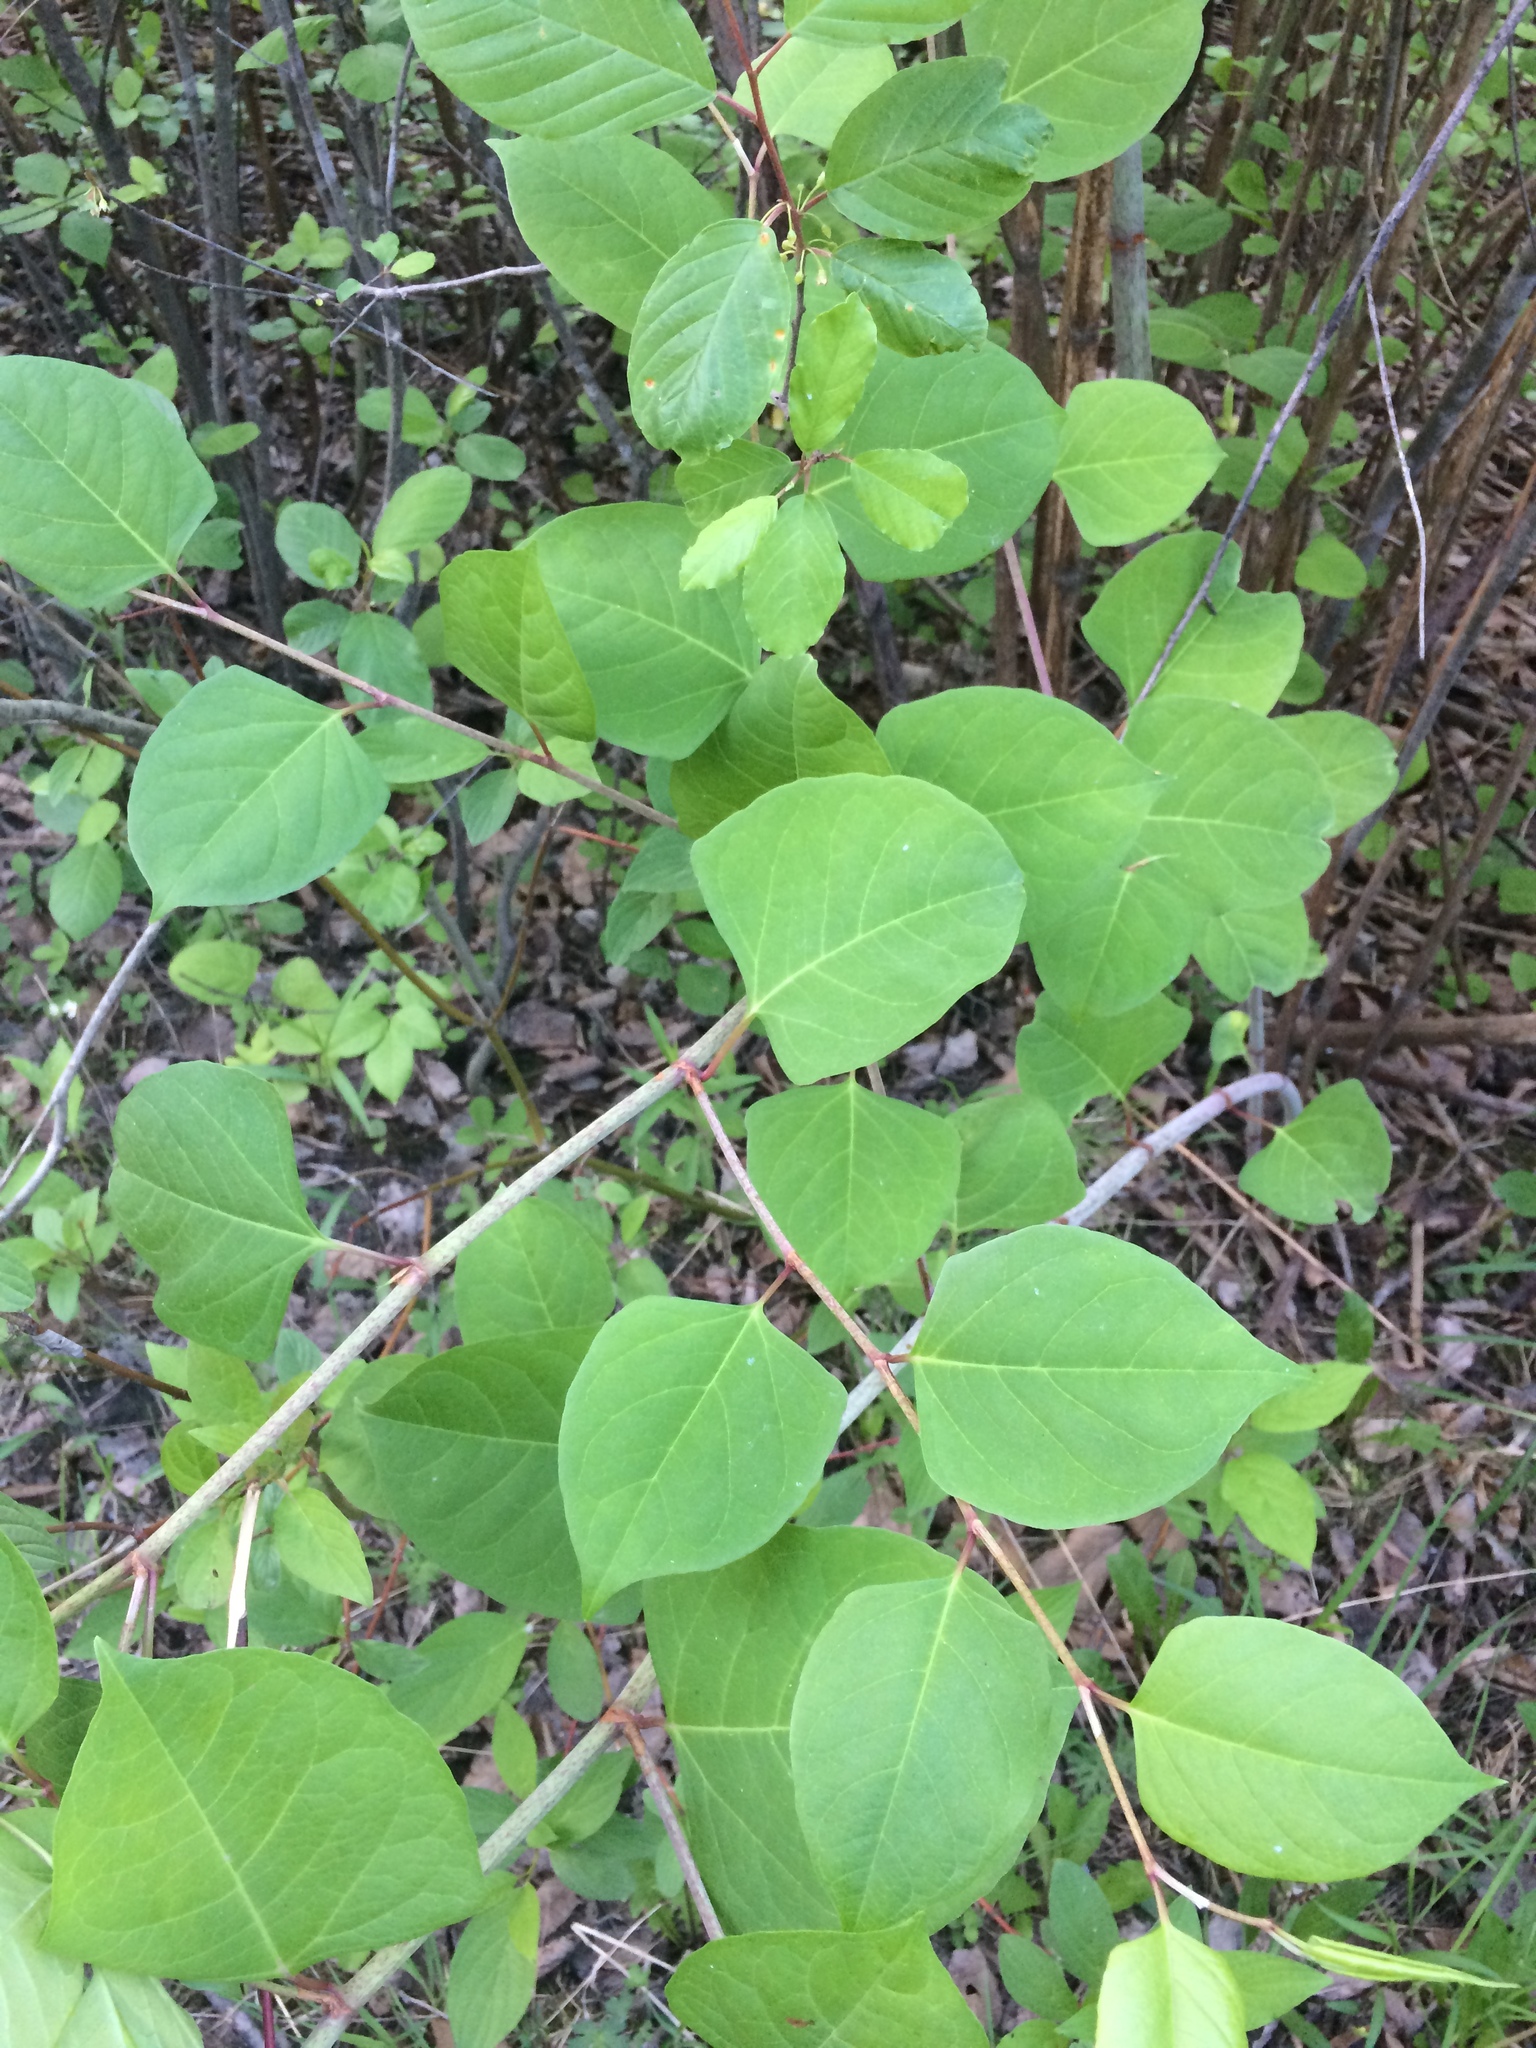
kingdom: Plantae
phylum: Tracheophyta
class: Magnoliopsida
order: Caryophyllales
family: Polygonaceae
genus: Reynoutria
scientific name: Reynoutria japonica
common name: Japanese knotweed
